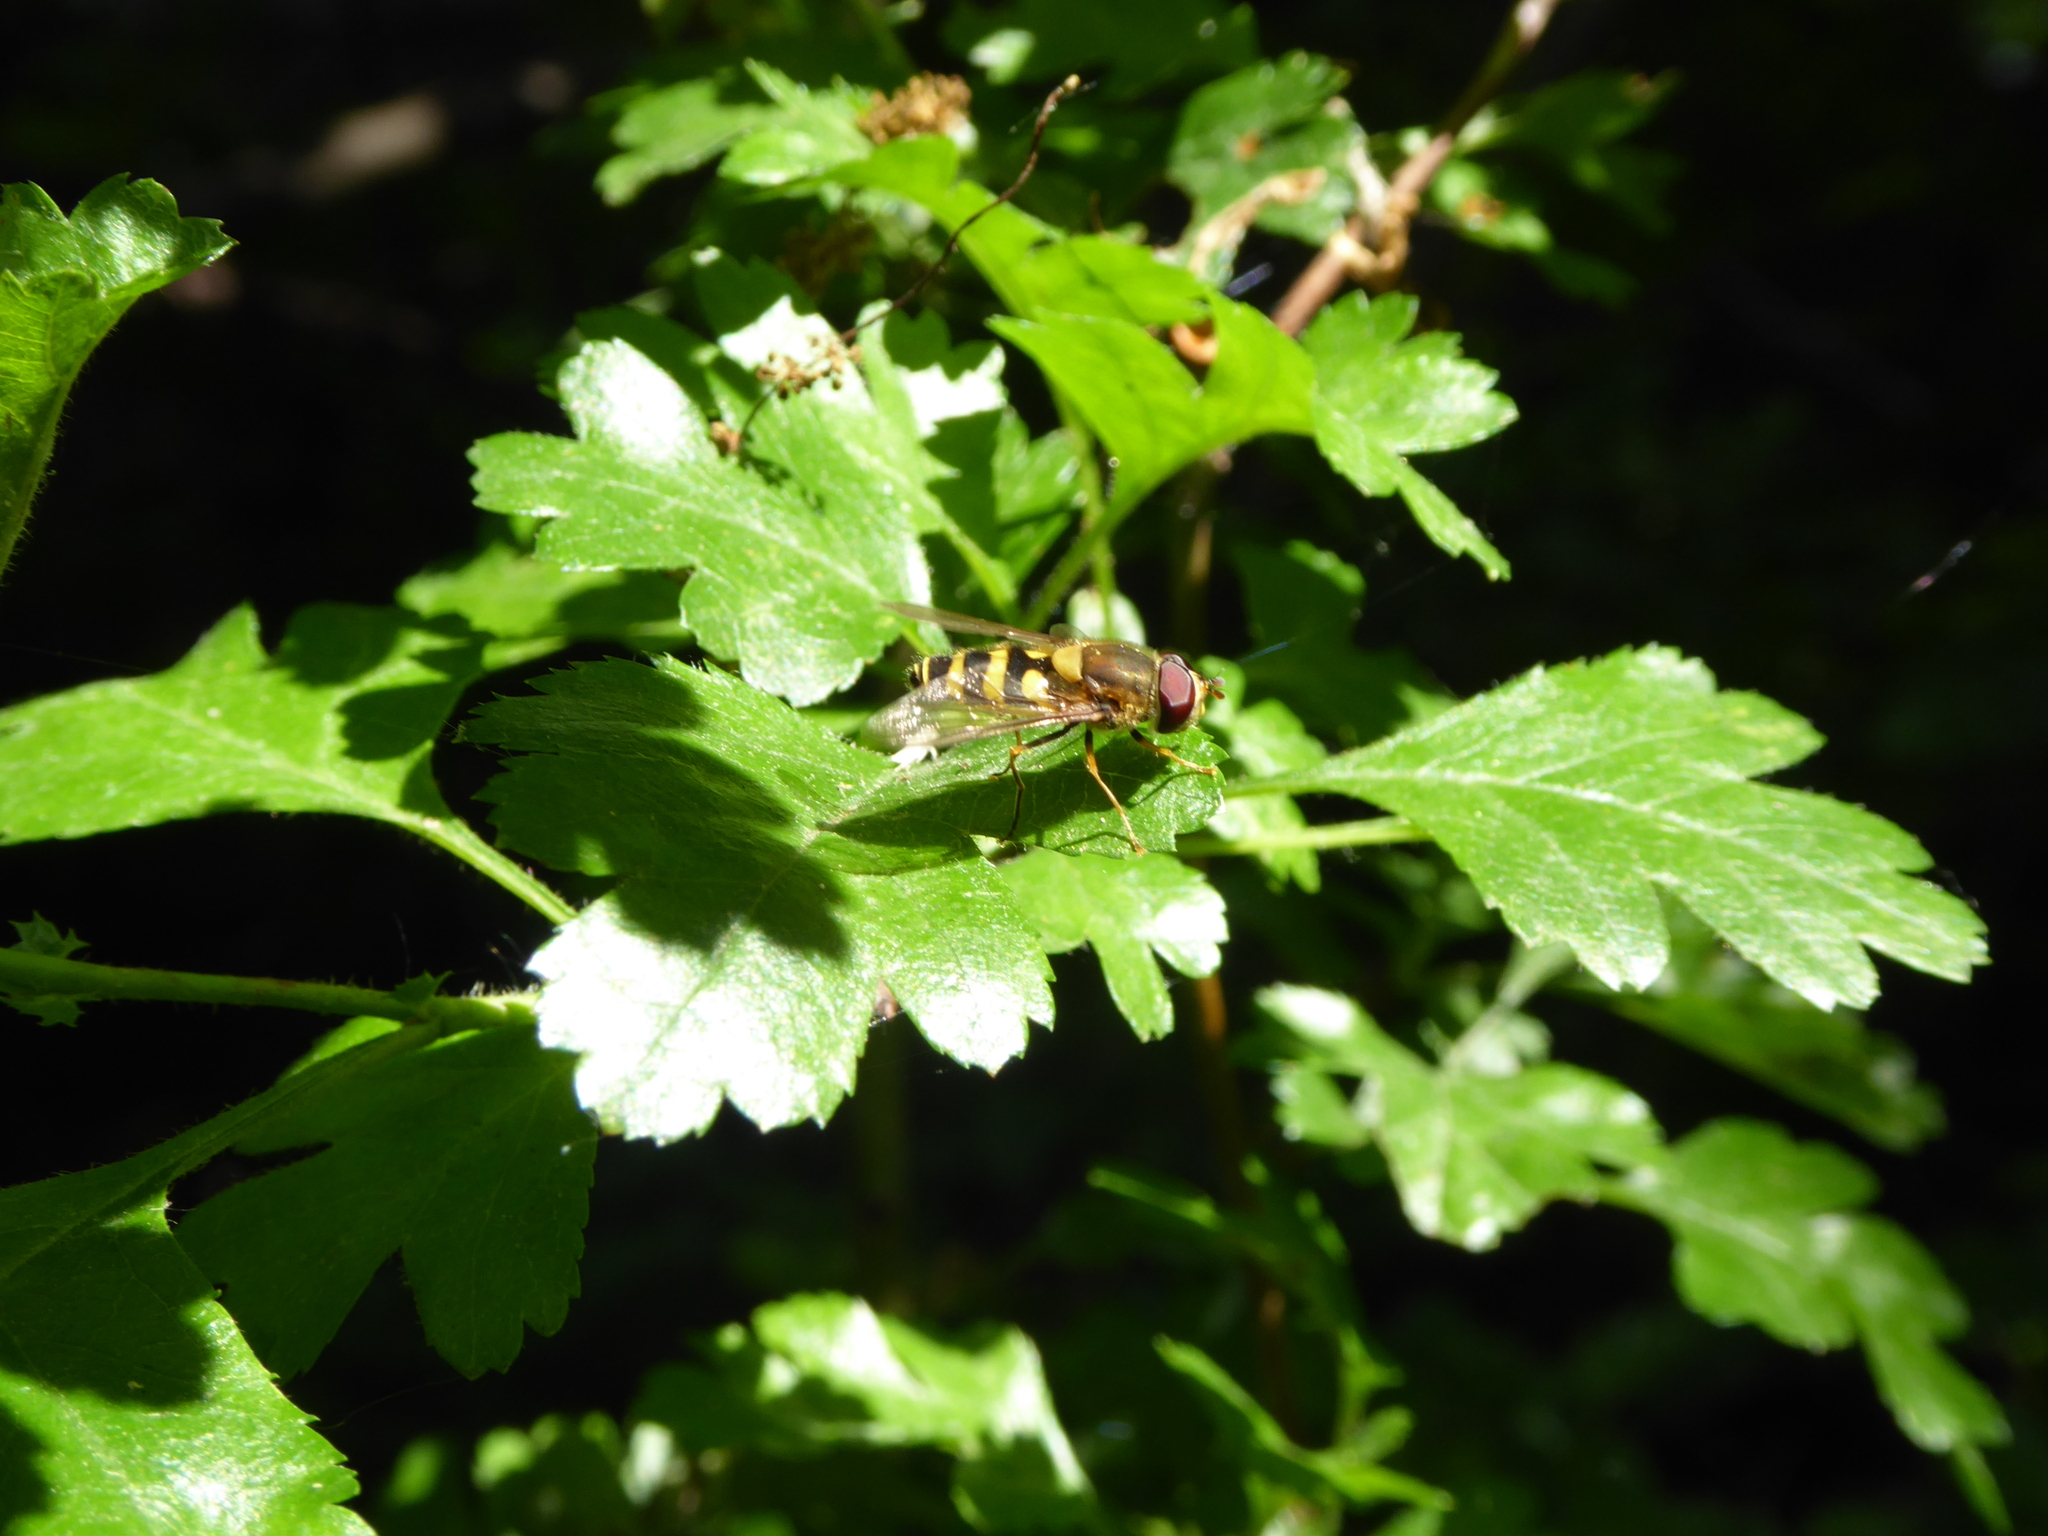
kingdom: Animalia
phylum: Arthropoda
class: Insecta
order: Diptera
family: Syrphidae
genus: Syrphus
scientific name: Syrphus
